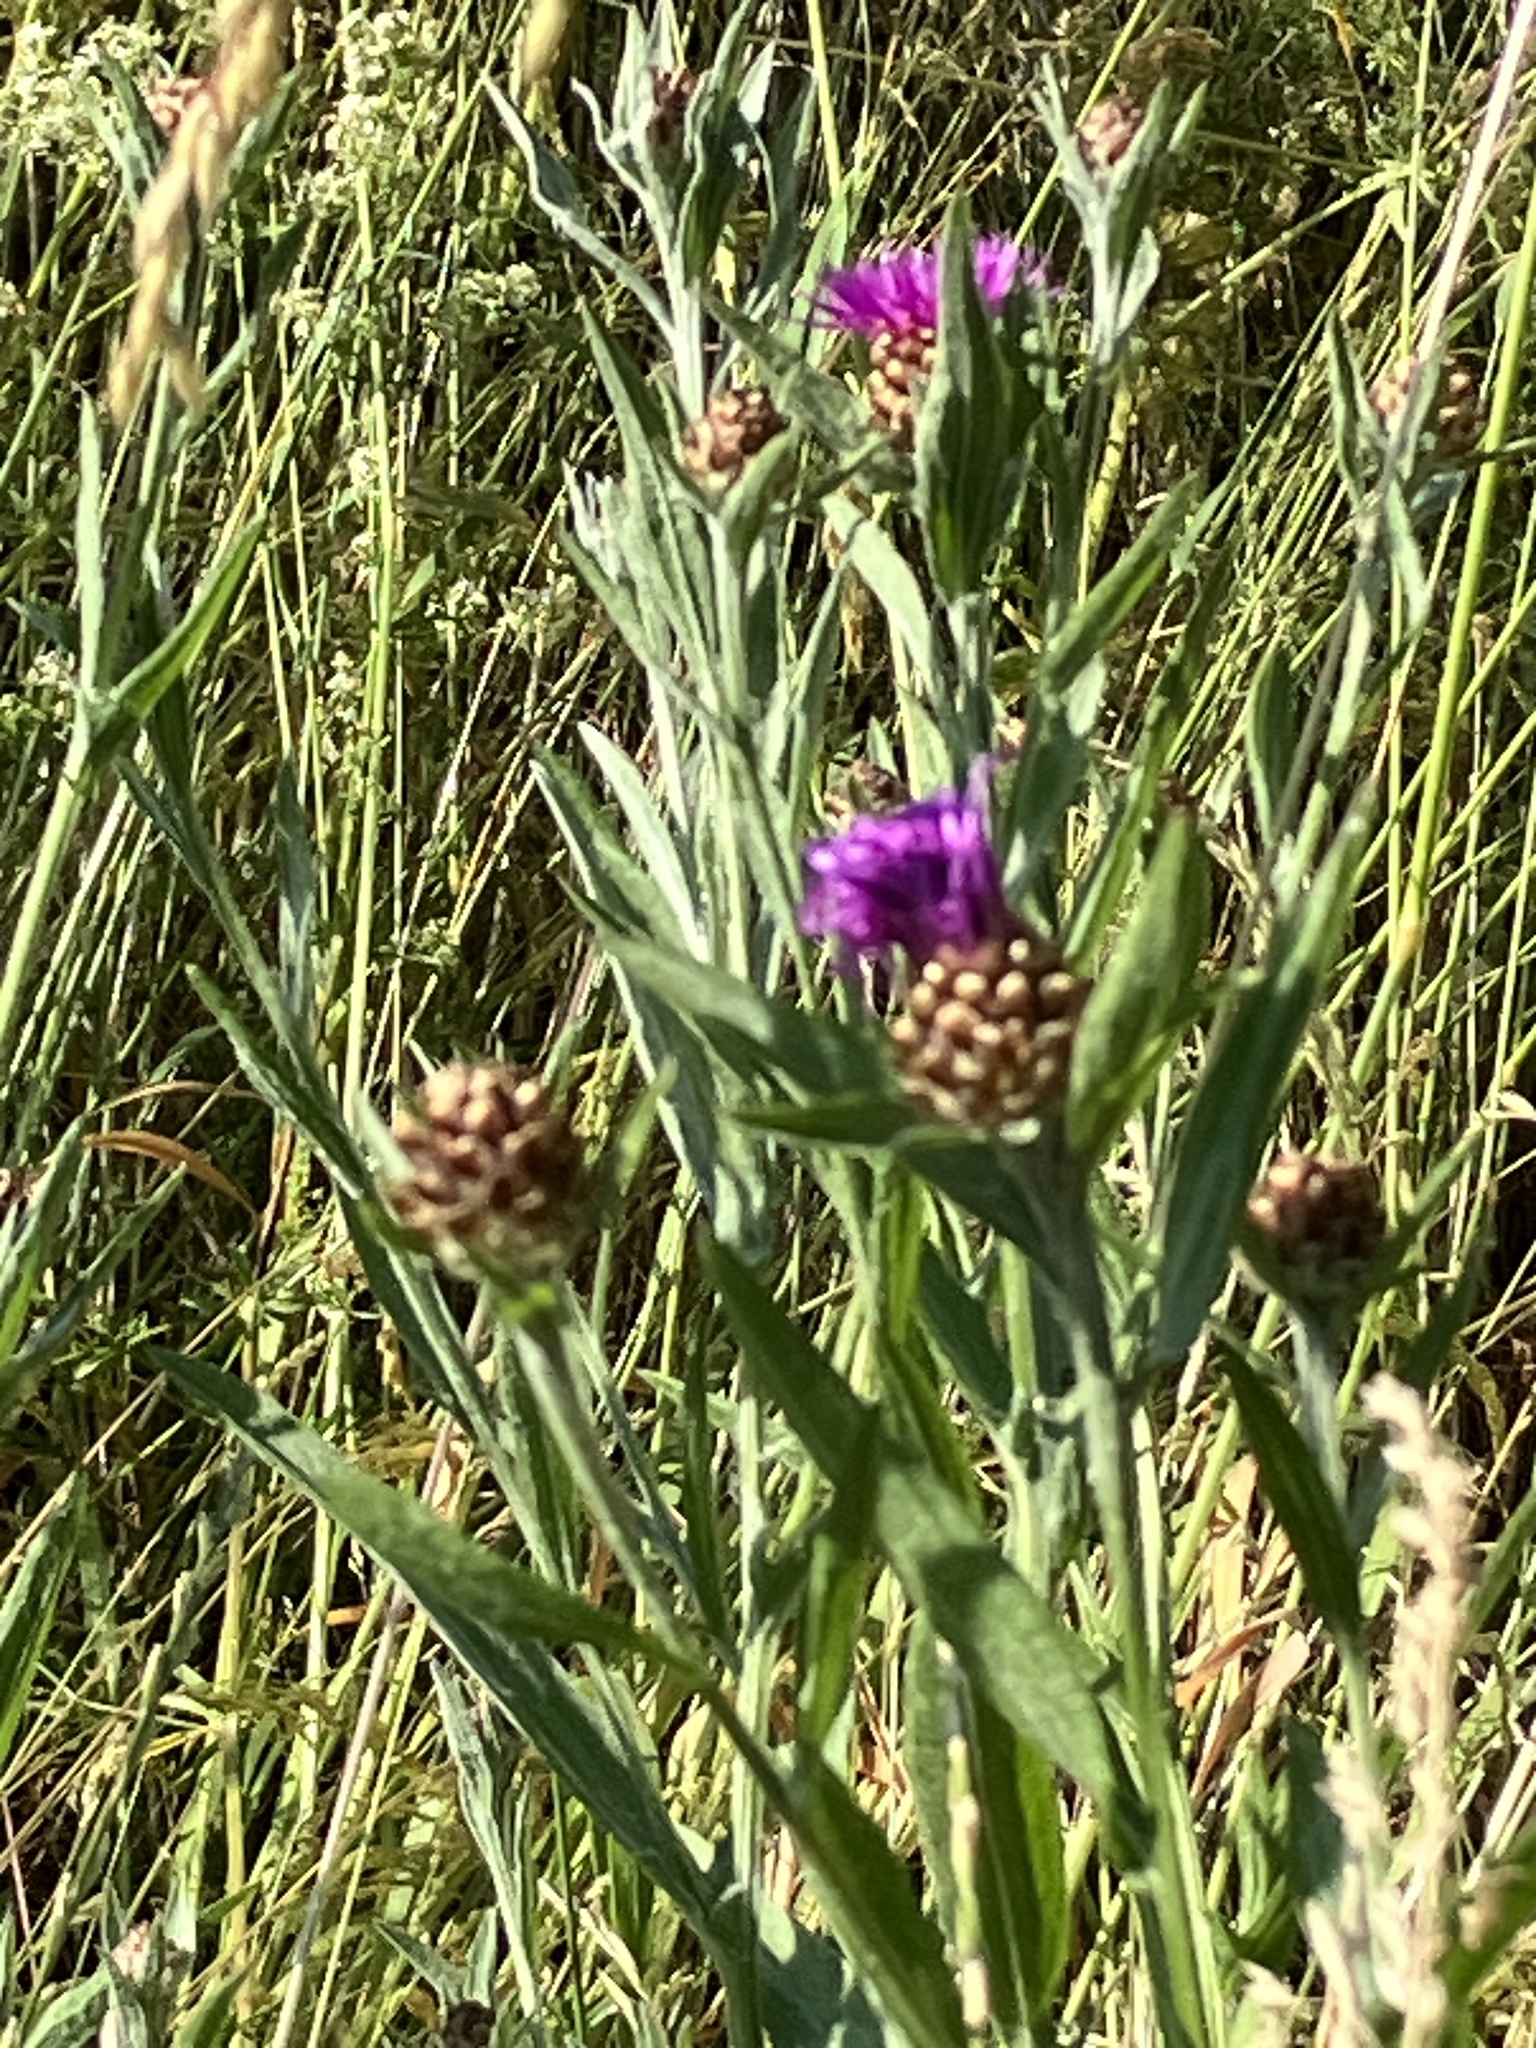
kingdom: Plantae
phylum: Tracheophyta
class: Magnoliopsida
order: Asterales
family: Asteraceae
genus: Centaurea
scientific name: Centaurea jacea
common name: Brown knapweed
